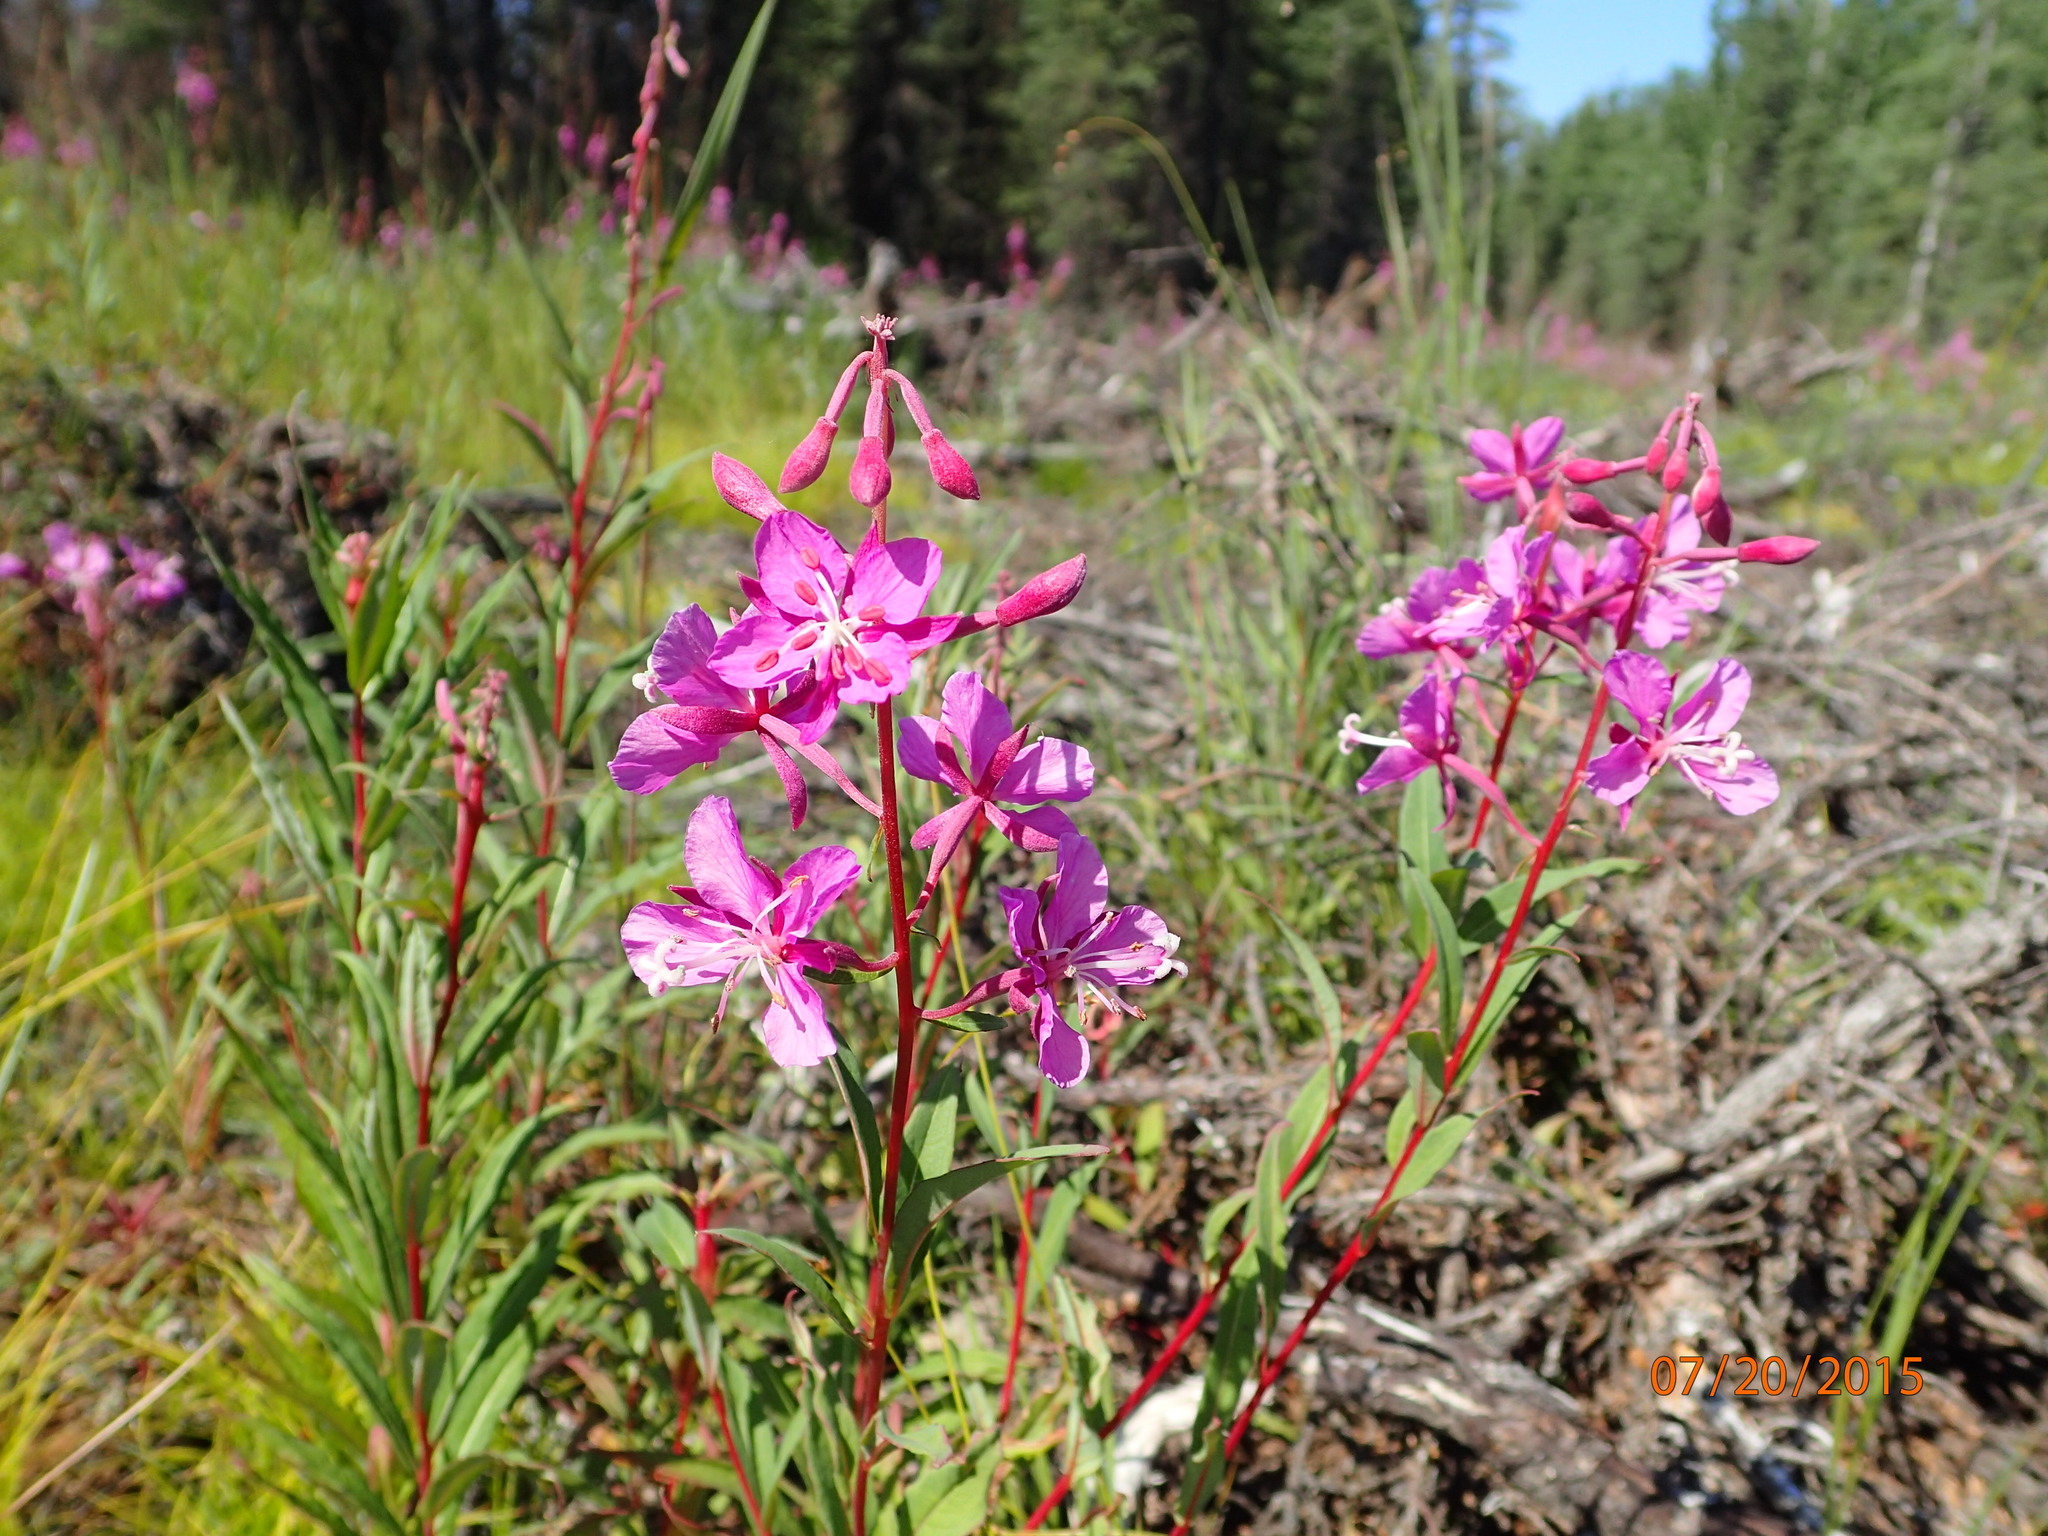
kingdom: Plantae
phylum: Tracheophyta
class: Magnoliopsida
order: Myrtales
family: Onagraceae
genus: Chamaenerion
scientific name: Chamaenerion angustifolium
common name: Fireweed
